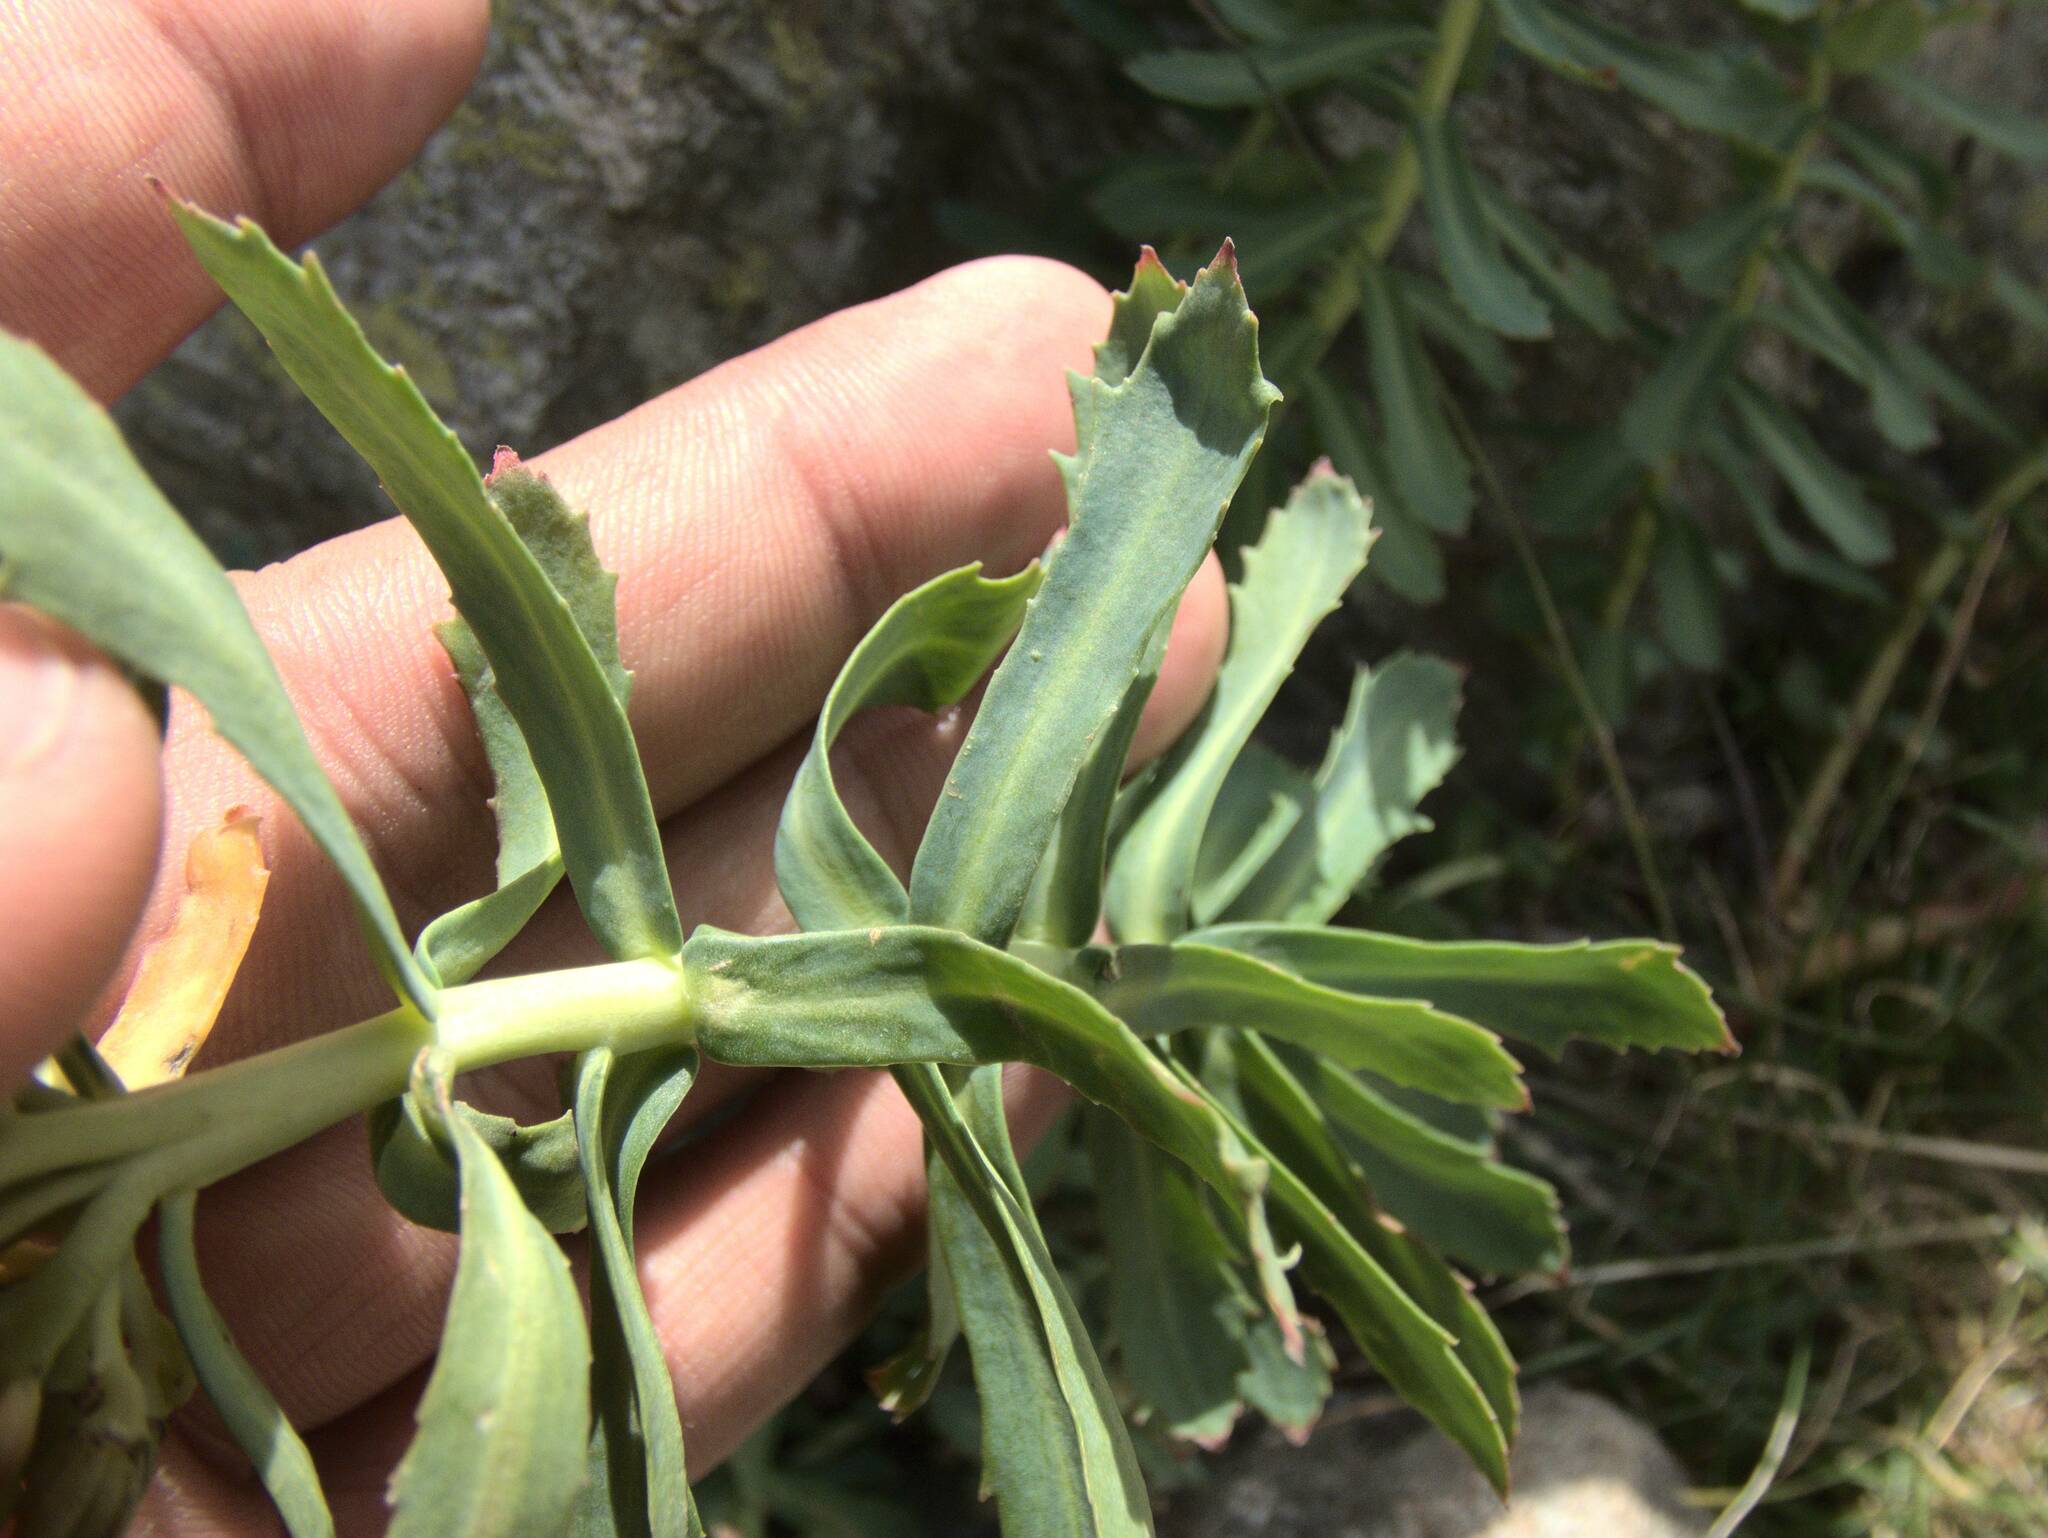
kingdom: Plantae
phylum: Tracheophyta
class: Magnoliopsida
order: Saxifragales
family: Crassulaceae
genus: Rhodiola
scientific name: Rhodiola rosea
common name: Roseroot
